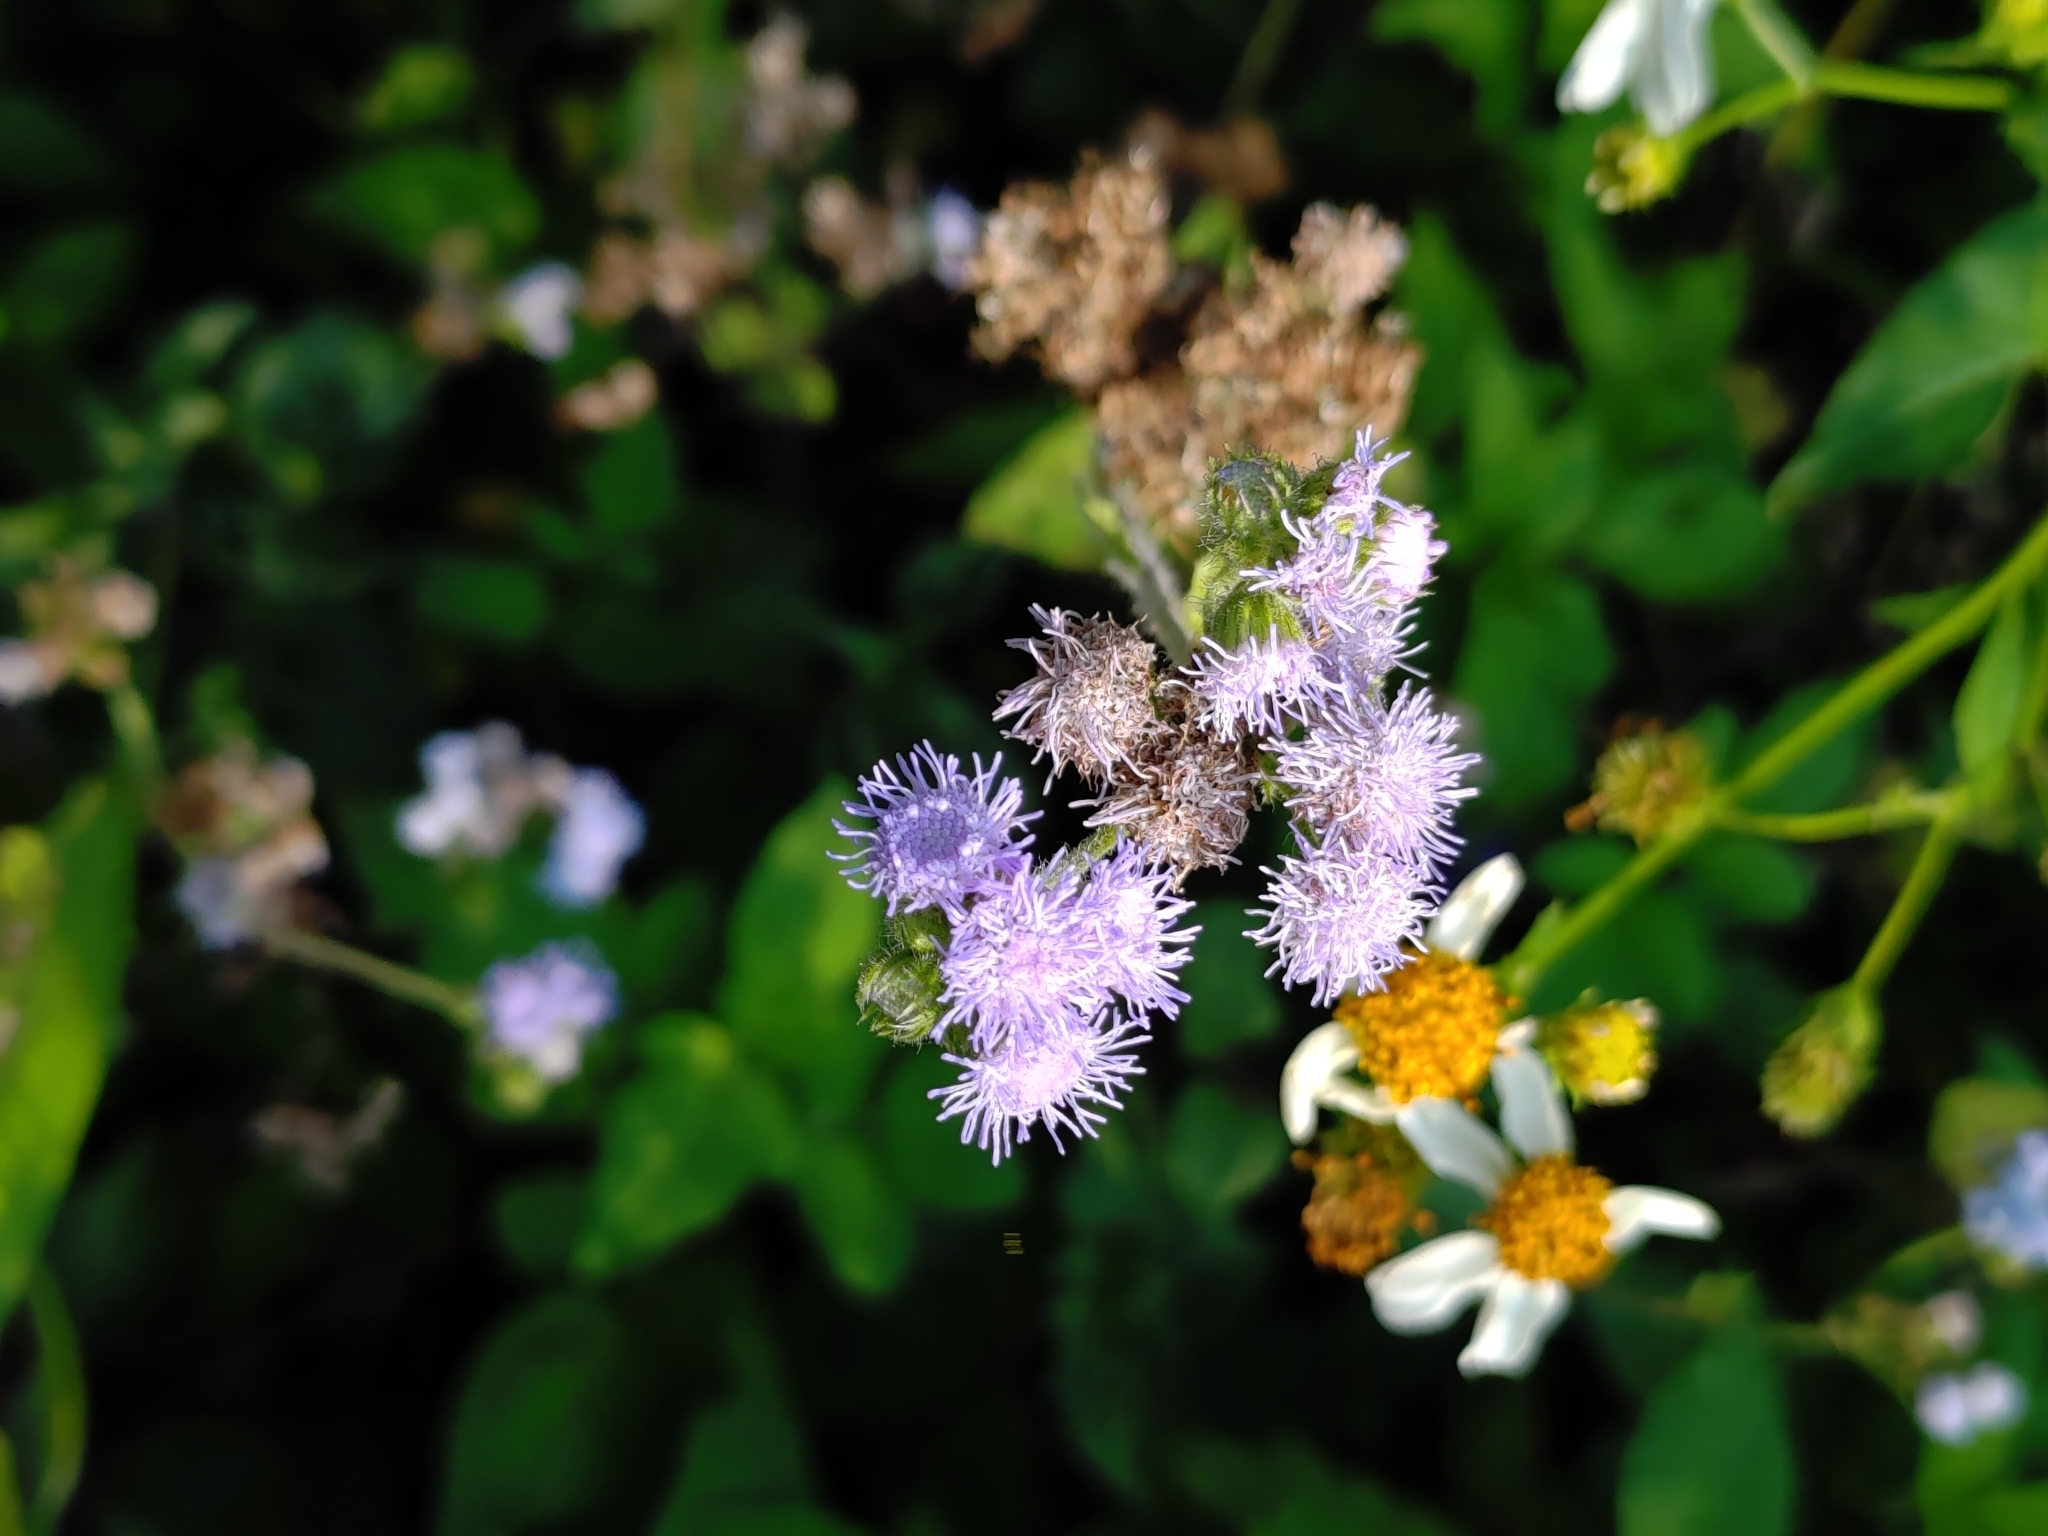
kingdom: Plantae
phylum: Tracheophyta
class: Magnoliopsida
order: Asterales
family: Asteraceae
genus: Ageratum
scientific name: Ageratum houstonianum
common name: Bluemink
